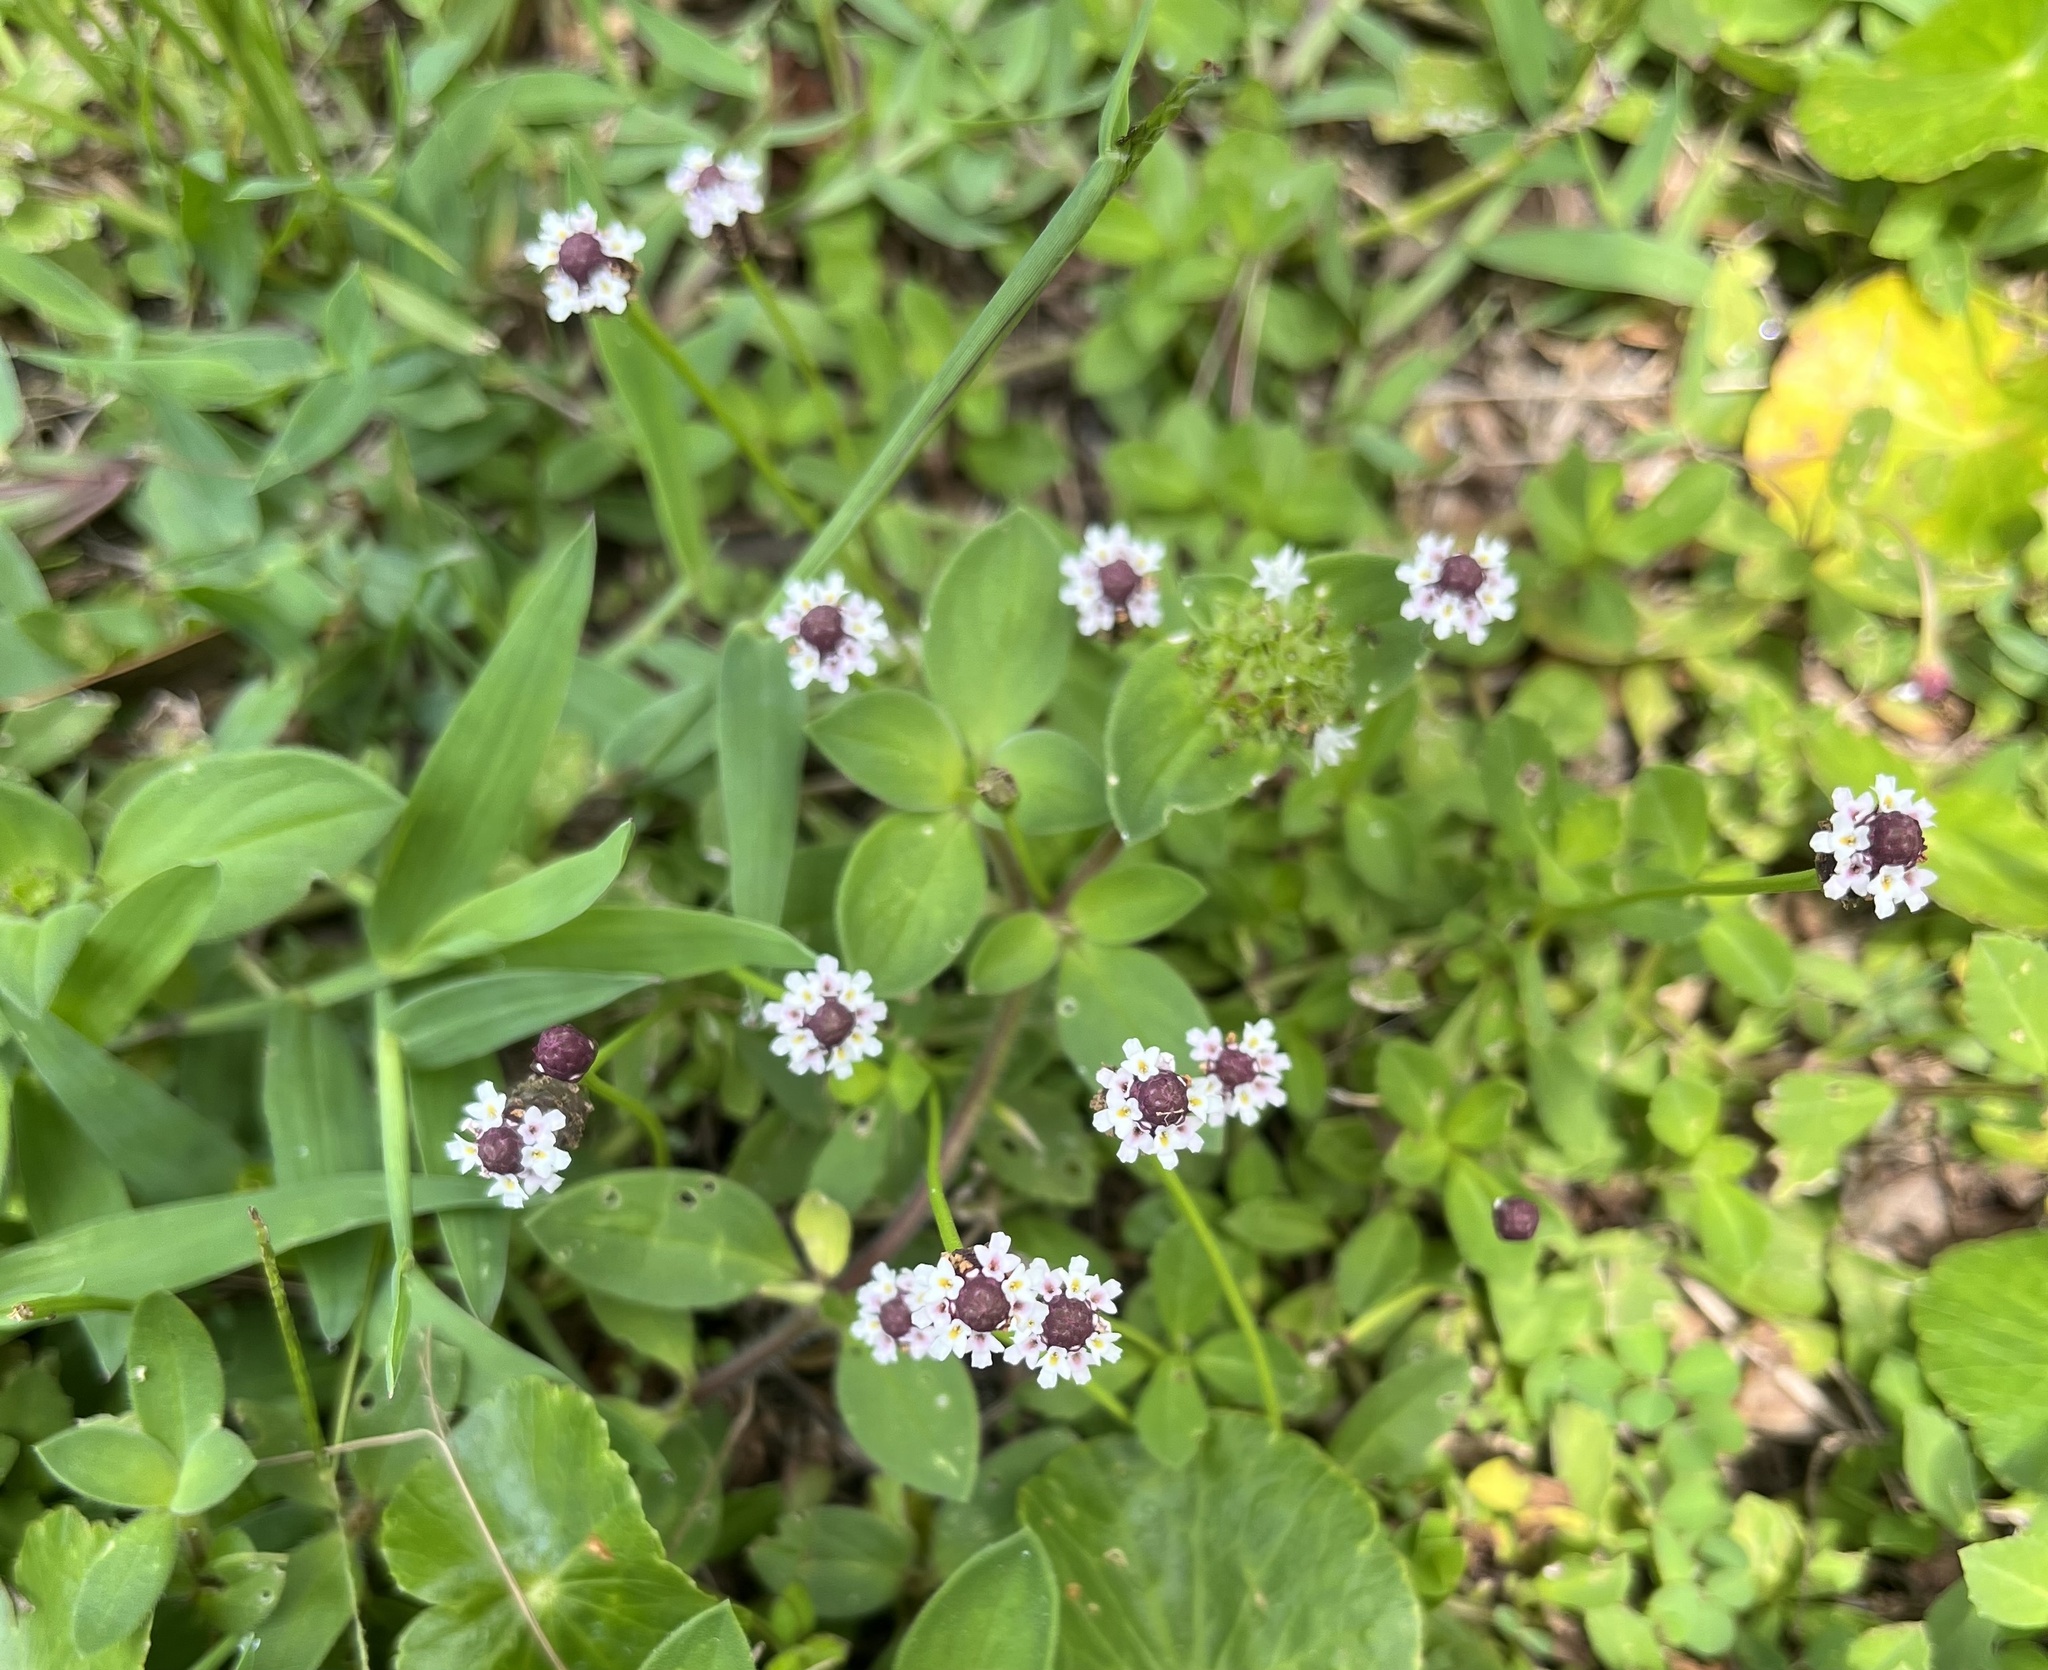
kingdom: Plantae
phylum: Tracheophyta
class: Magnoliopsida
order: Lamiales
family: Verbenaceae
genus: Phyla
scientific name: Phyla nodiflora
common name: Frogfruit
